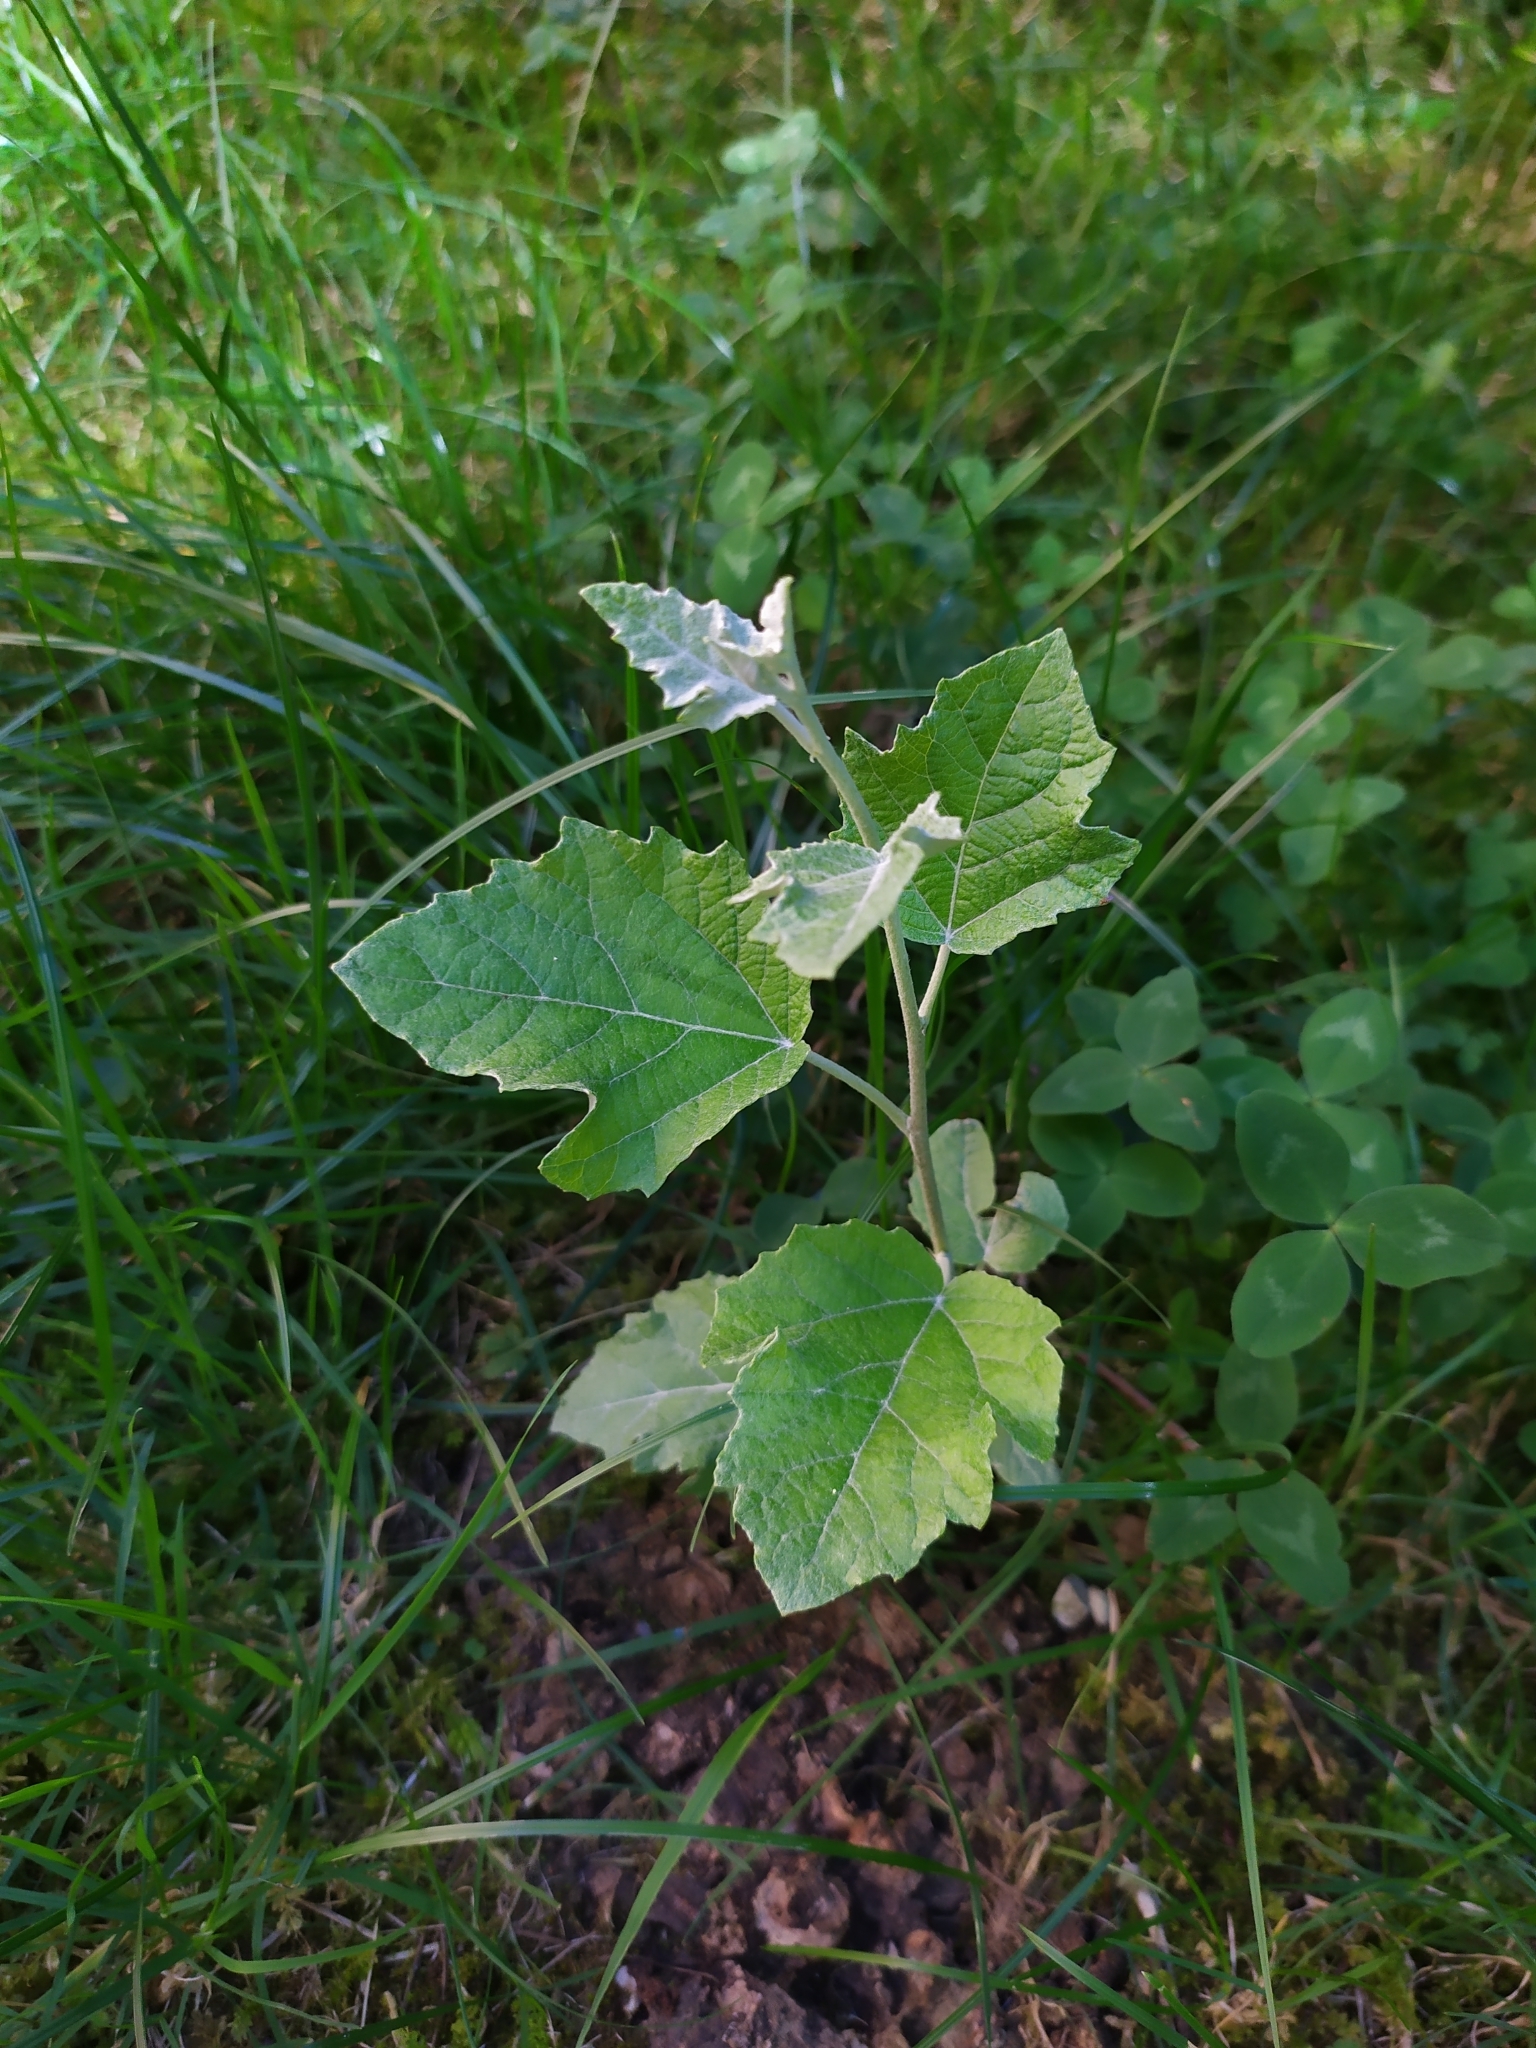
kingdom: Plantae
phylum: Tracheophyta
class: Magnoliopsida
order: Malpighiales
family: Salicaceae
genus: Populus
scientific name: Populus alba
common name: White poplar
